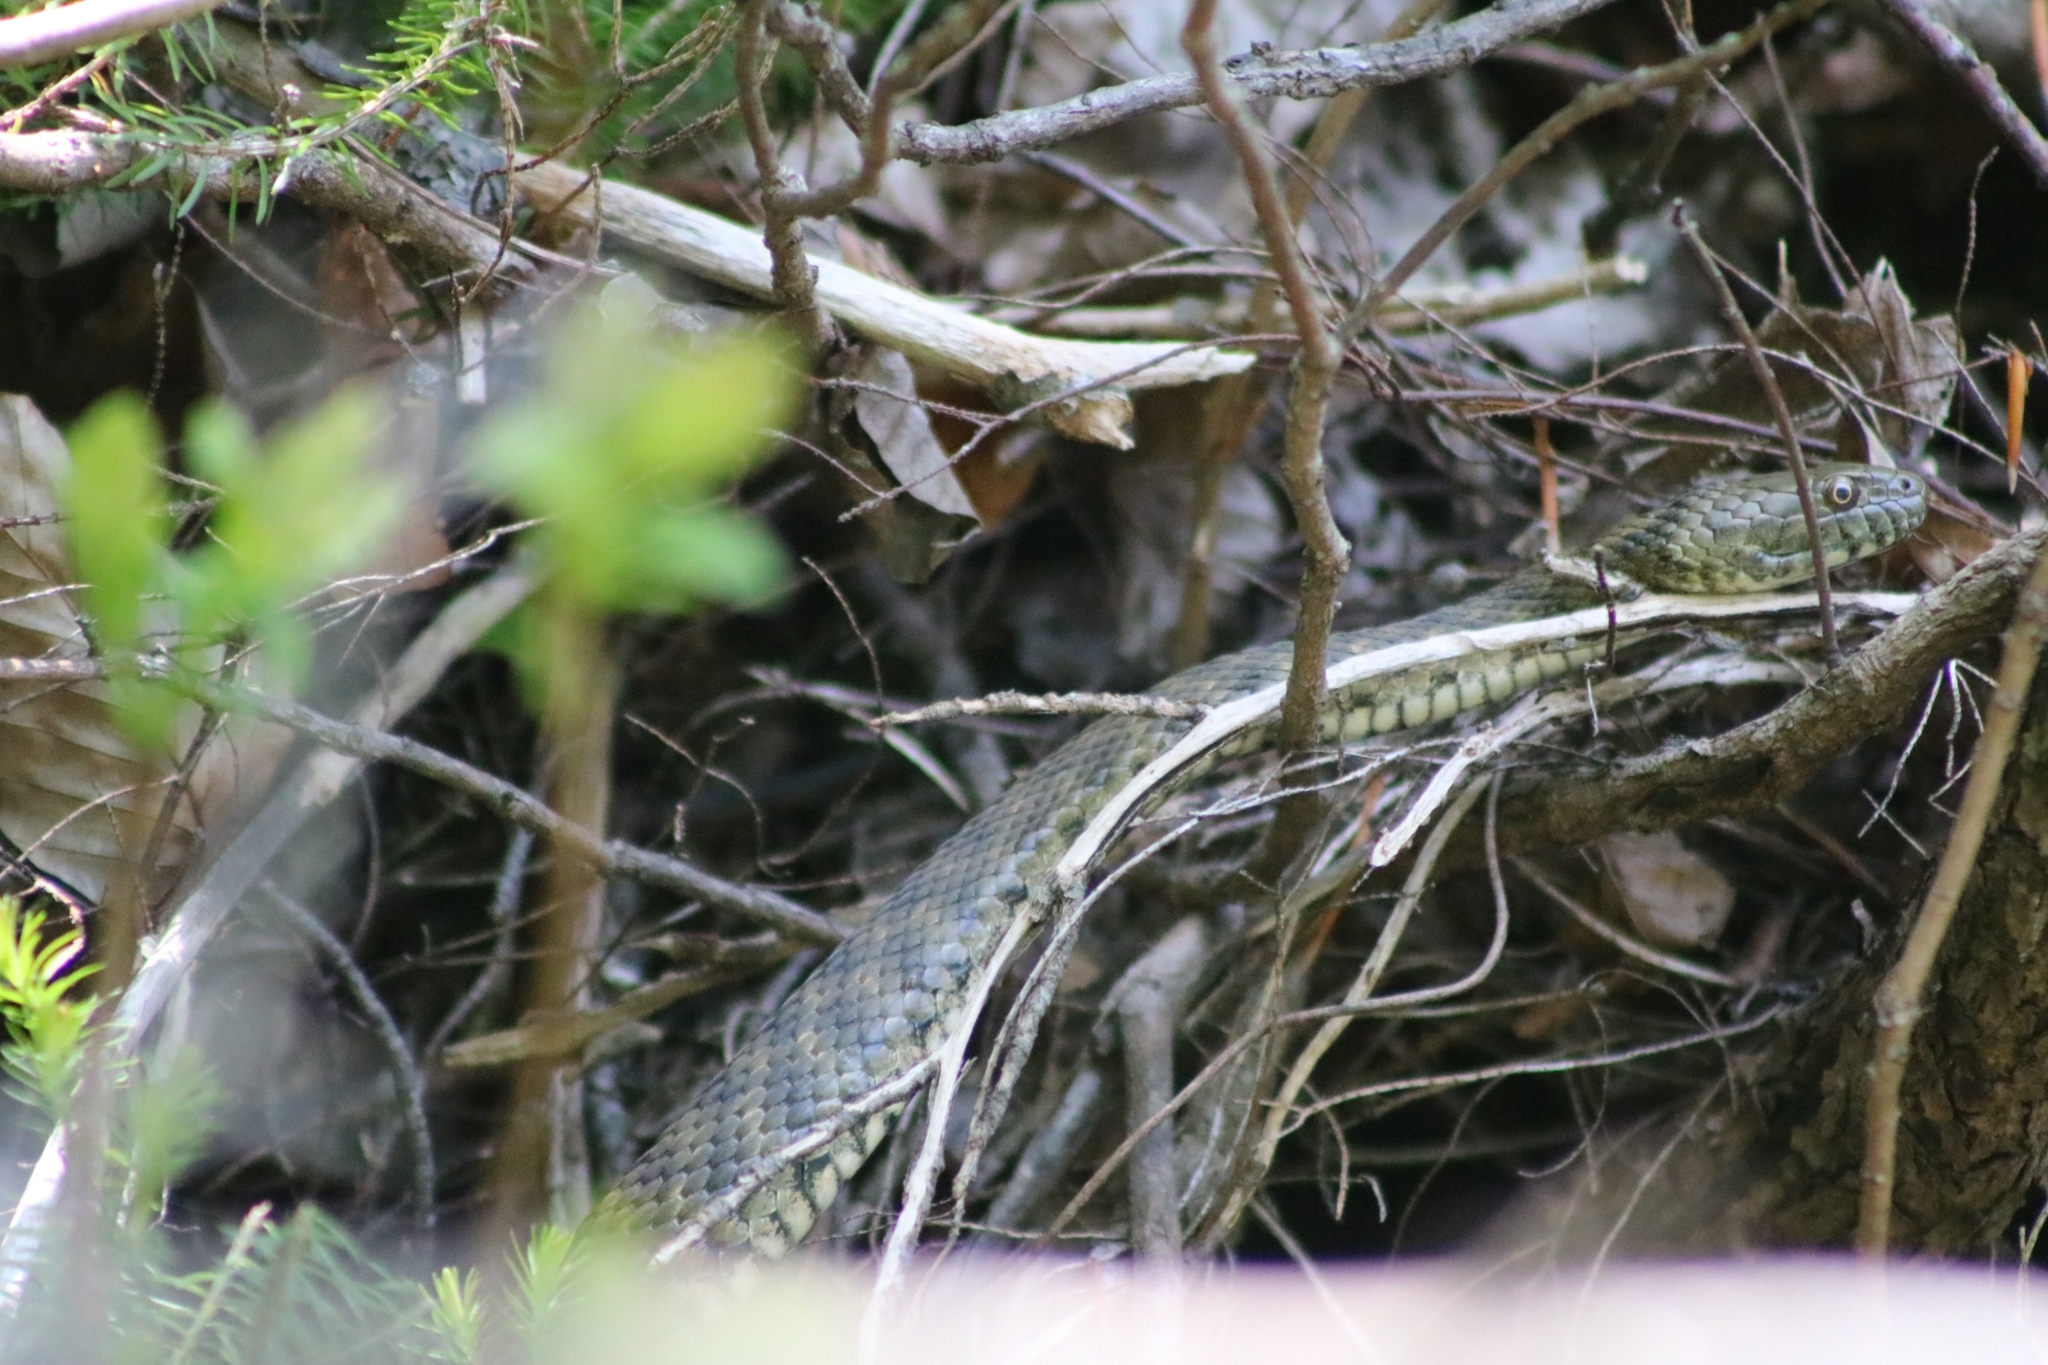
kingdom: Animalia
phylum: Chordata
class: Squamata
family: Colubridae
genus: Natrix
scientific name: Natrix tessellata
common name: Dice snake
